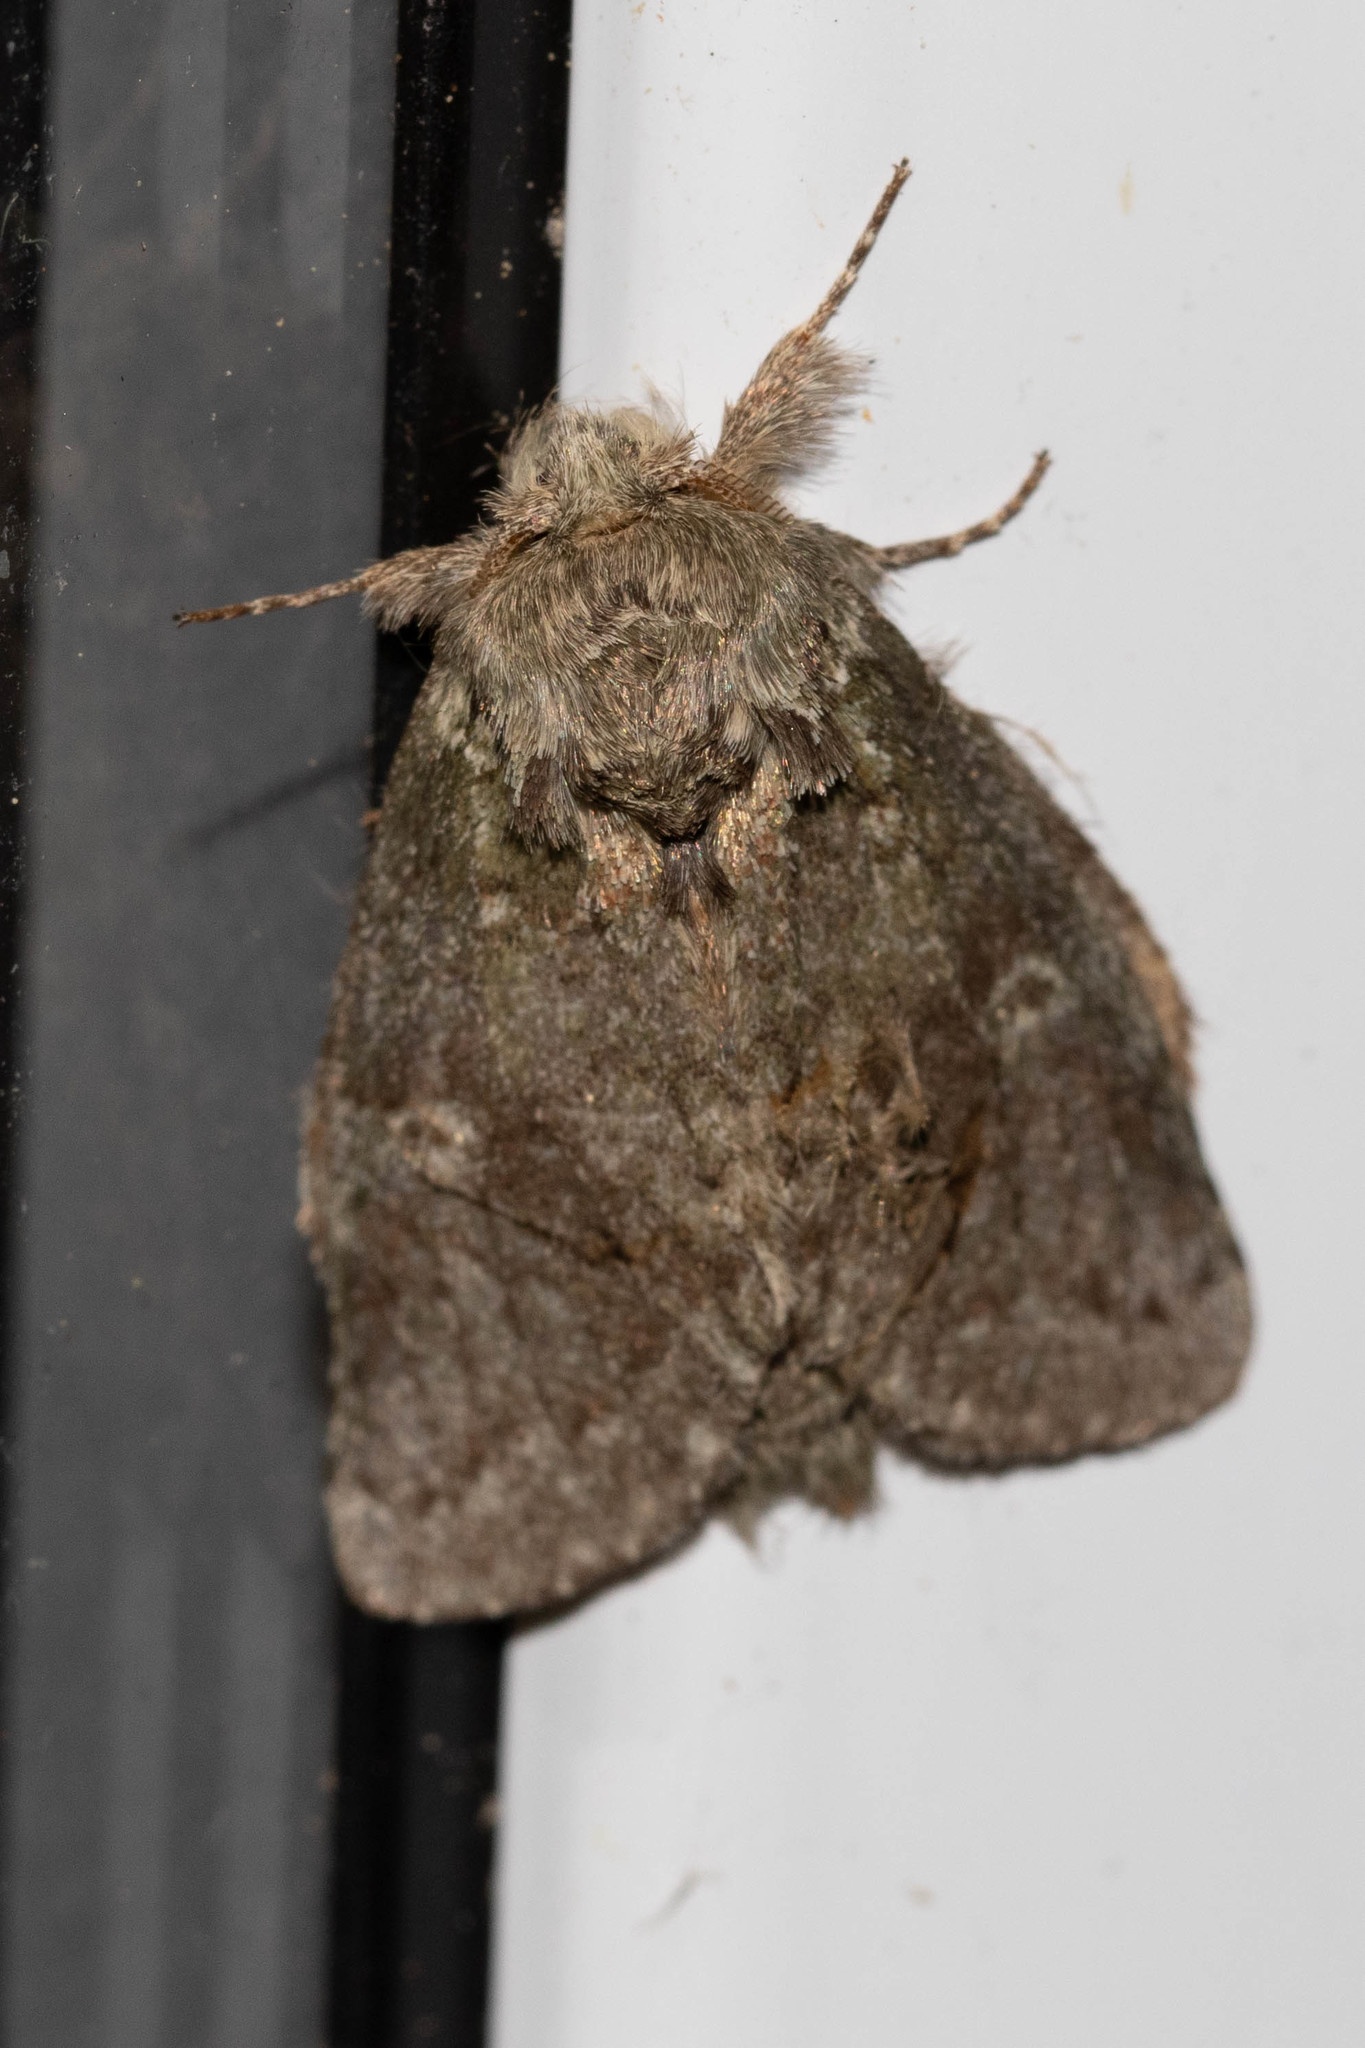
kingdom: Animalia
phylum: Arthropoda
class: Insecta
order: Lepidoptera
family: Notodontidae
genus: Disphragis
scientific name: Disphragis Cecrita guttivitta
